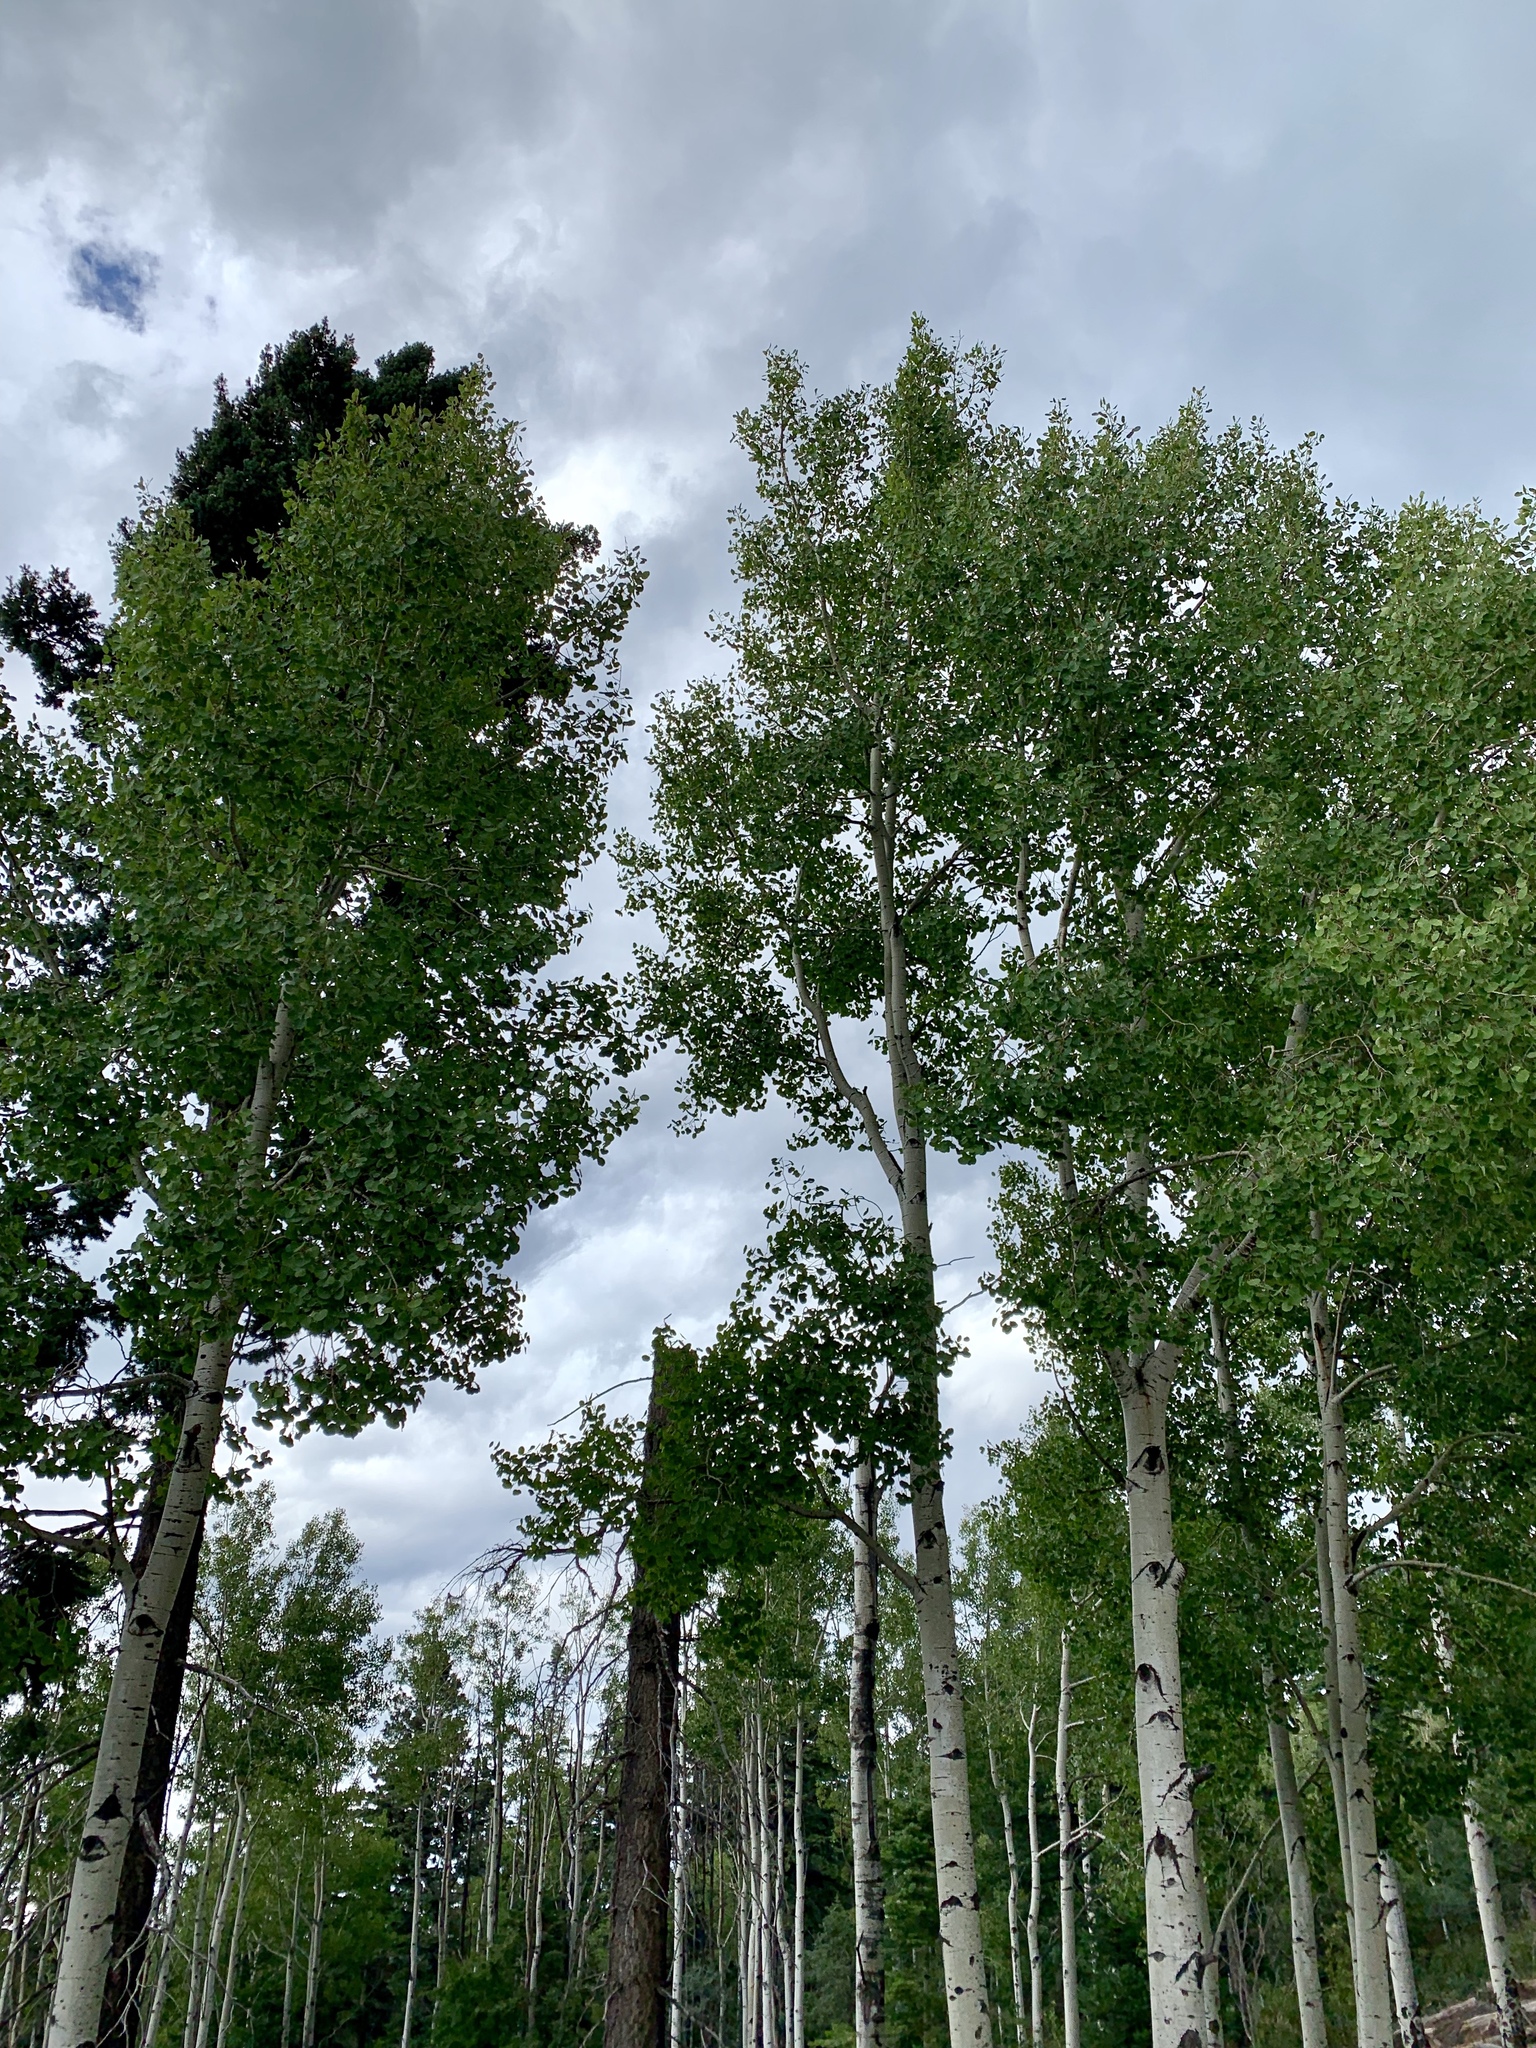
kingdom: Plantae
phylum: Tracheophyta
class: Magnoliopsida
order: Malpighiales
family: Salicaceae
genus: Populus
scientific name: Populus tremuloides
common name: Quaking aspen
